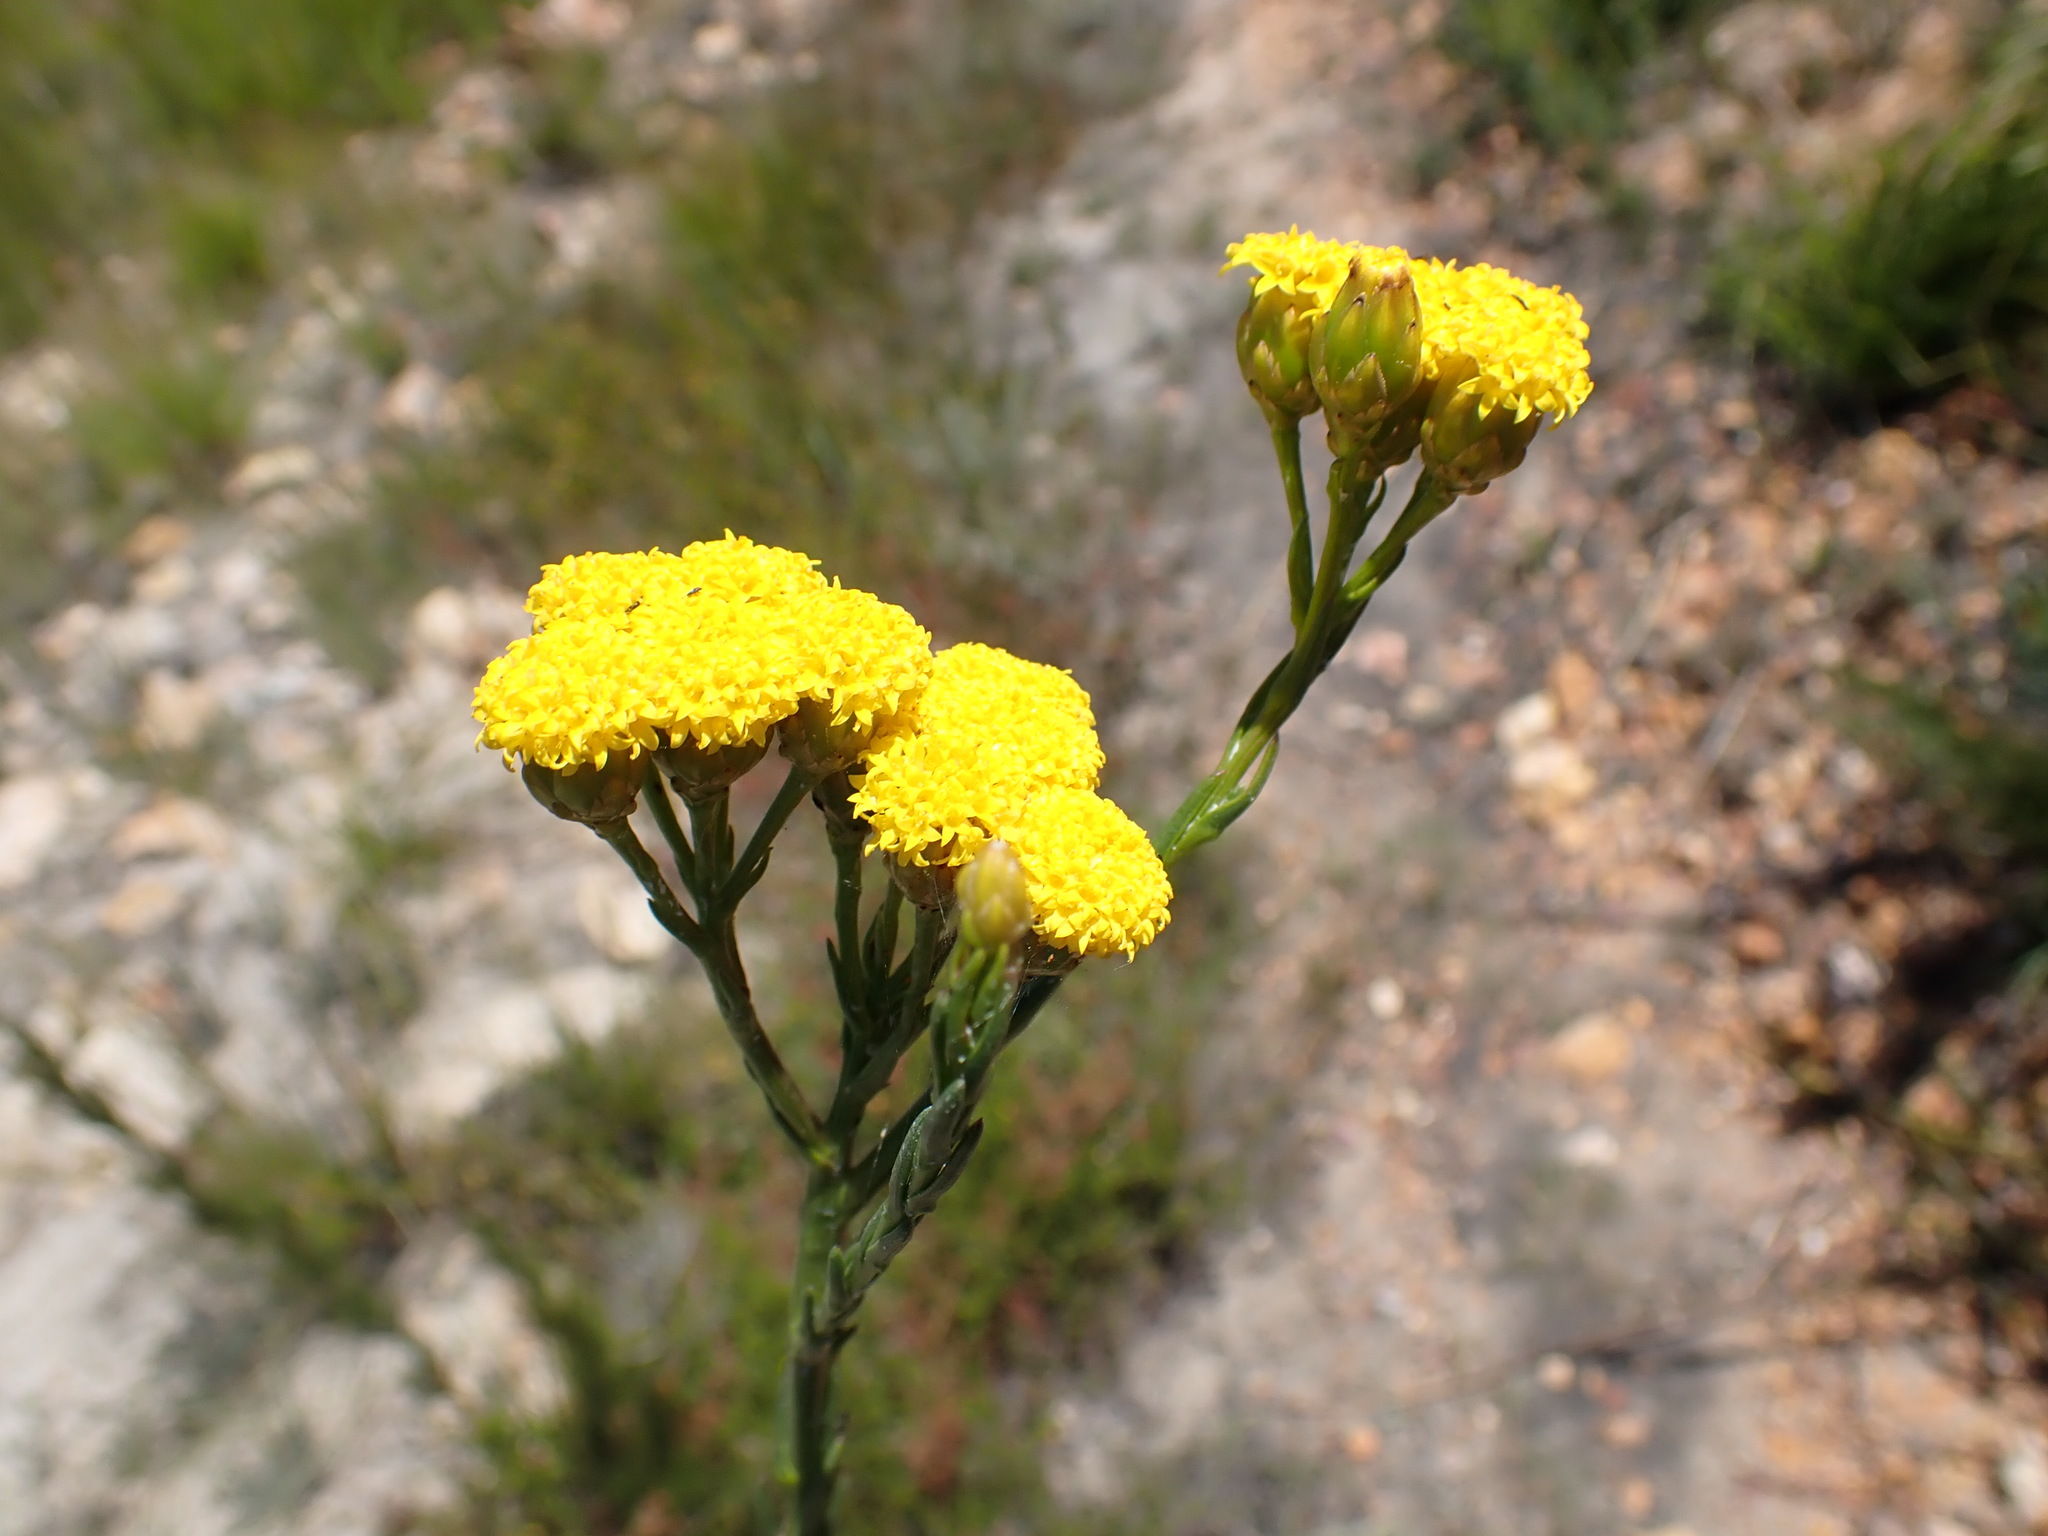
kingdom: Plantae
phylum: Tracheophyta
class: Magnoliopsida
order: Asterales
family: Asteraceae
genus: Athanasia
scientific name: Athanasia linifolia
